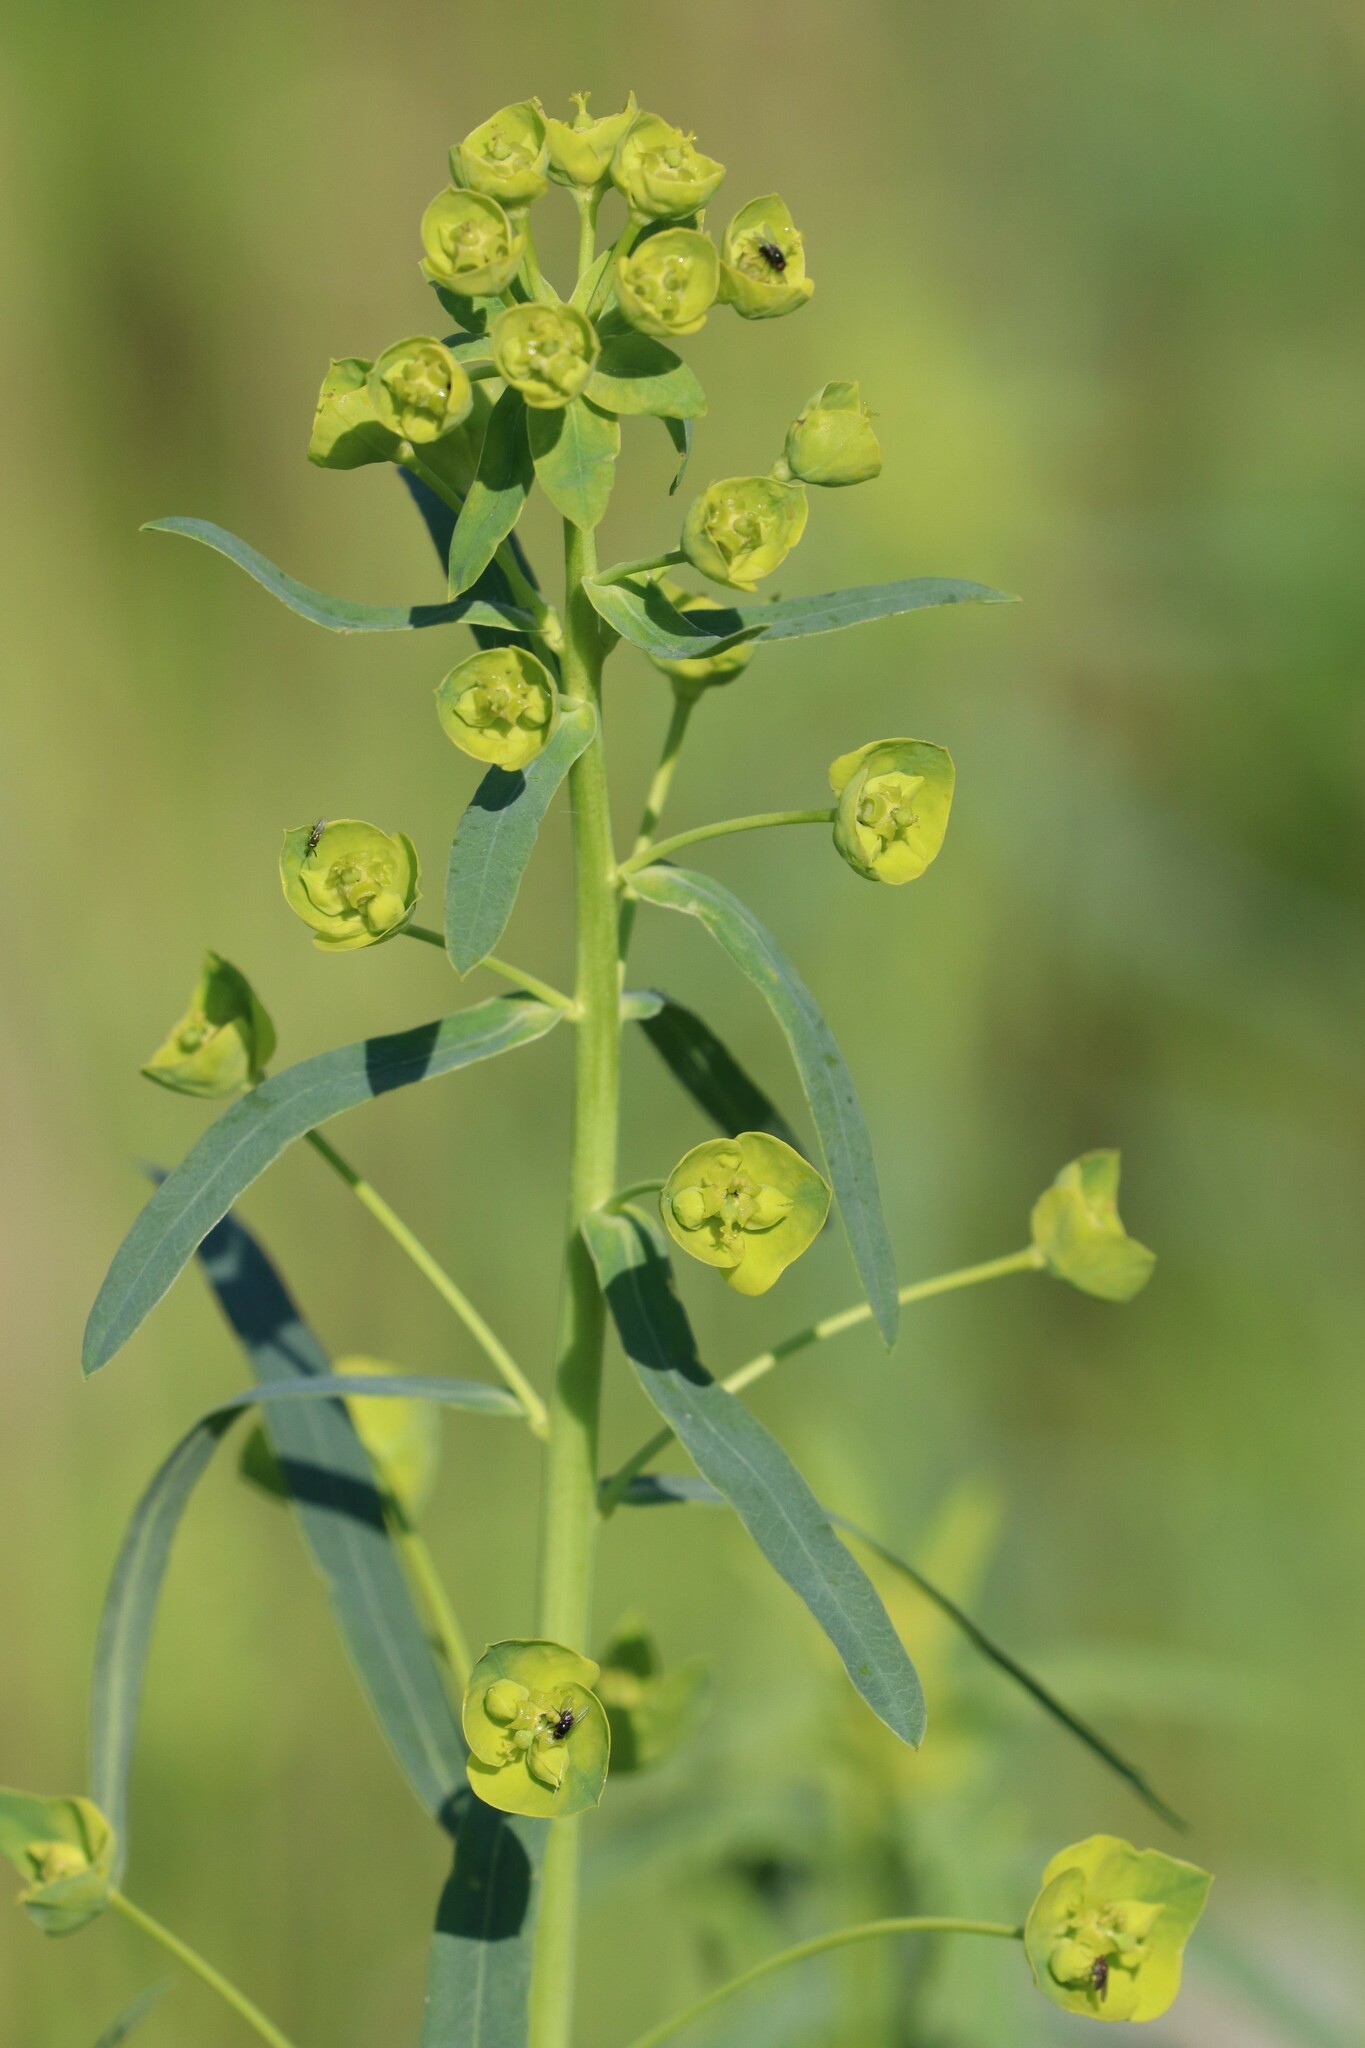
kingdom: Plantae
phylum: Tracheophyta
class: Magnoliopsida
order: Malpighiales
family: Euphorbiaceae
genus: Euphorbia
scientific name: Euphorbia virgata
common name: Leafy spurge
